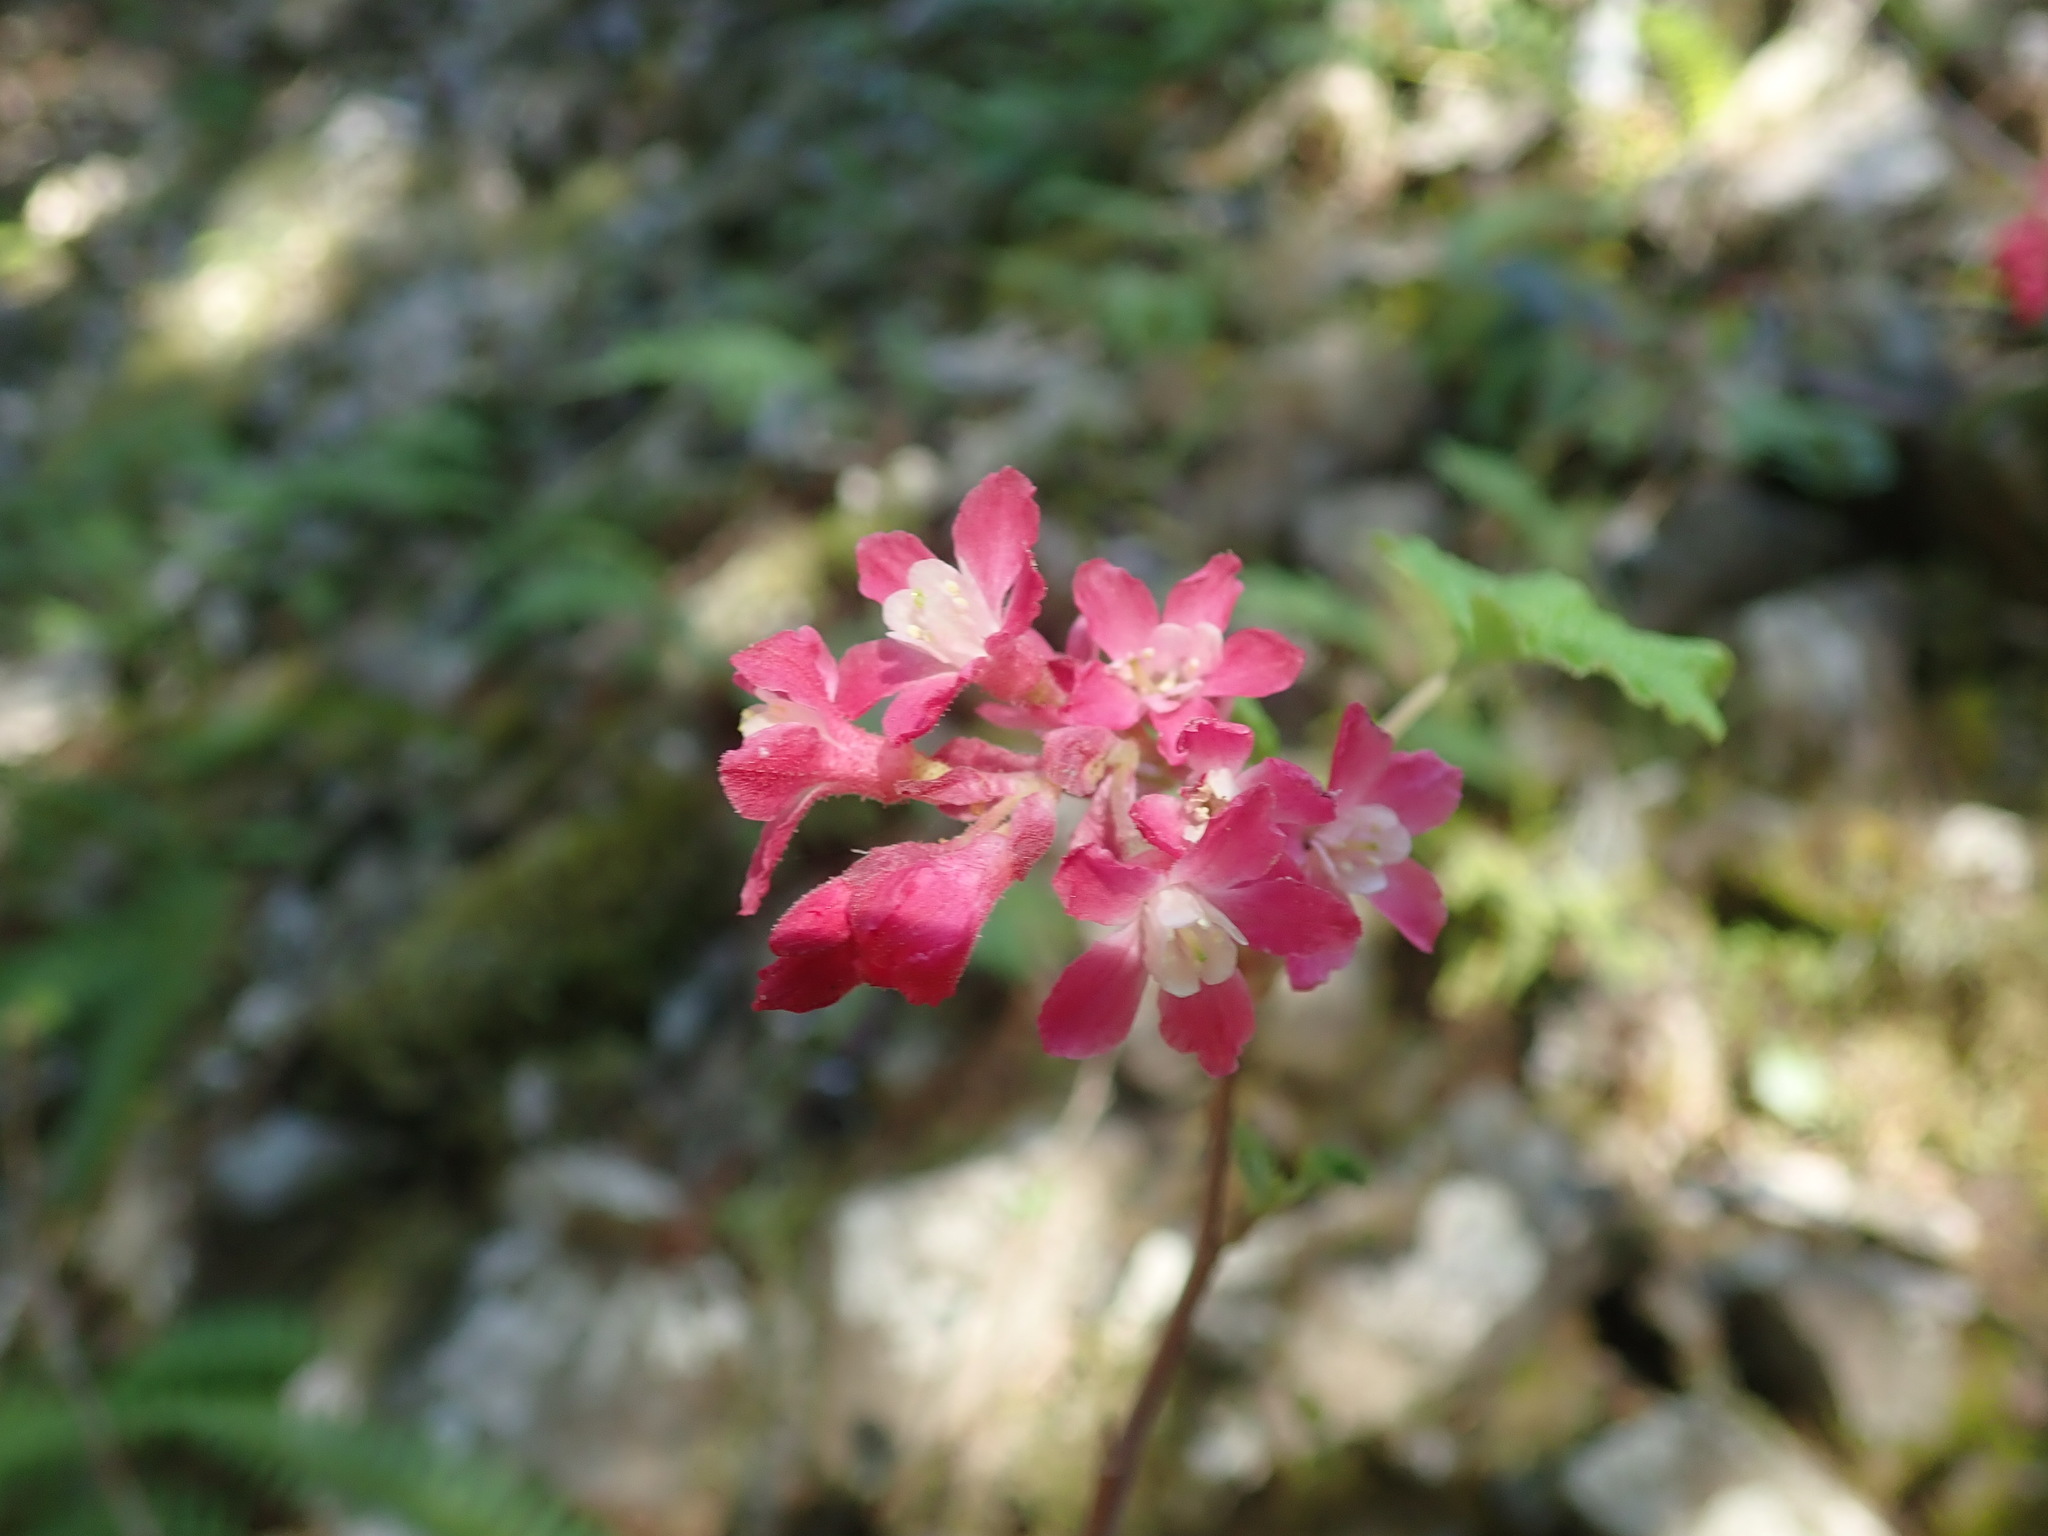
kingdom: Plantae
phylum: Tracheophyta
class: Magnoliopsida
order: Saxifragales
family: Grossulariaceae
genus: Ribes
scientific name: Ribes sanguineum
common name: Flowering currant
